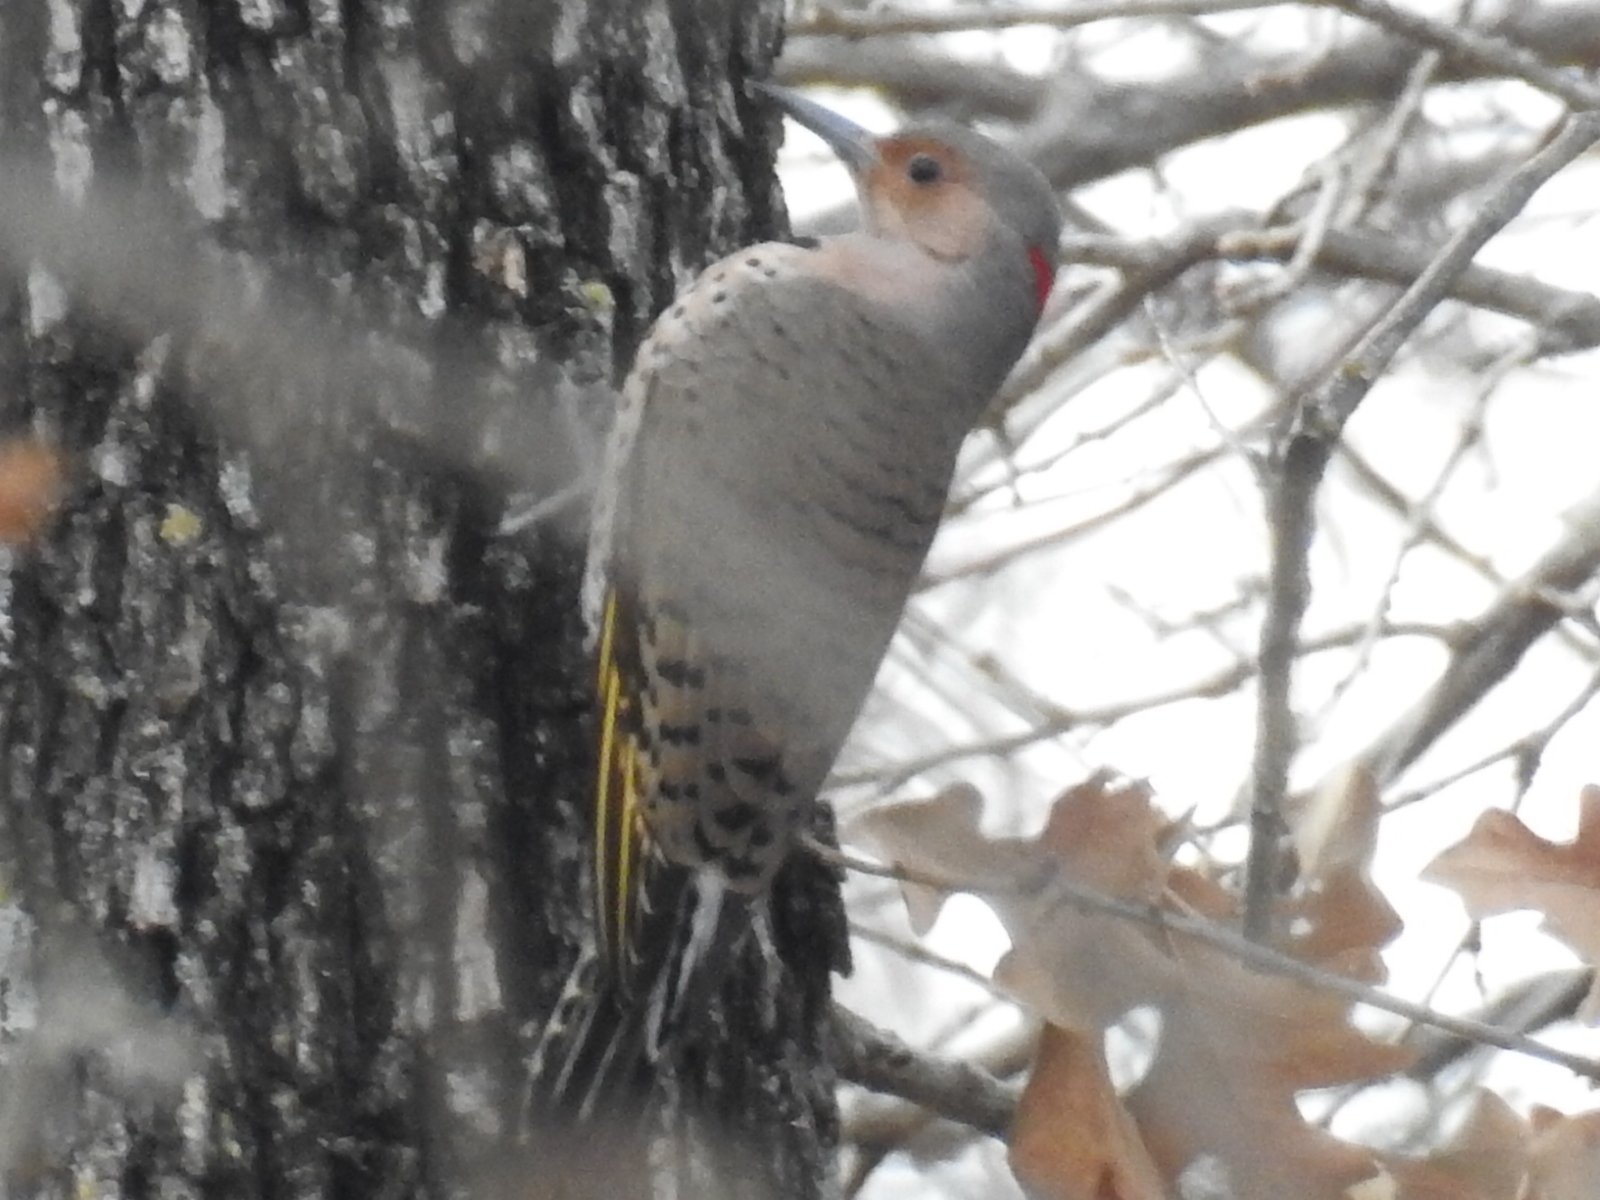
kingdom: Animalia
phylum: Chordata
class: Aves
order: Piciformes
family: Picidae
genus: Colaptes
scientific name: Colaptes auratus
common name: Northern flicker
